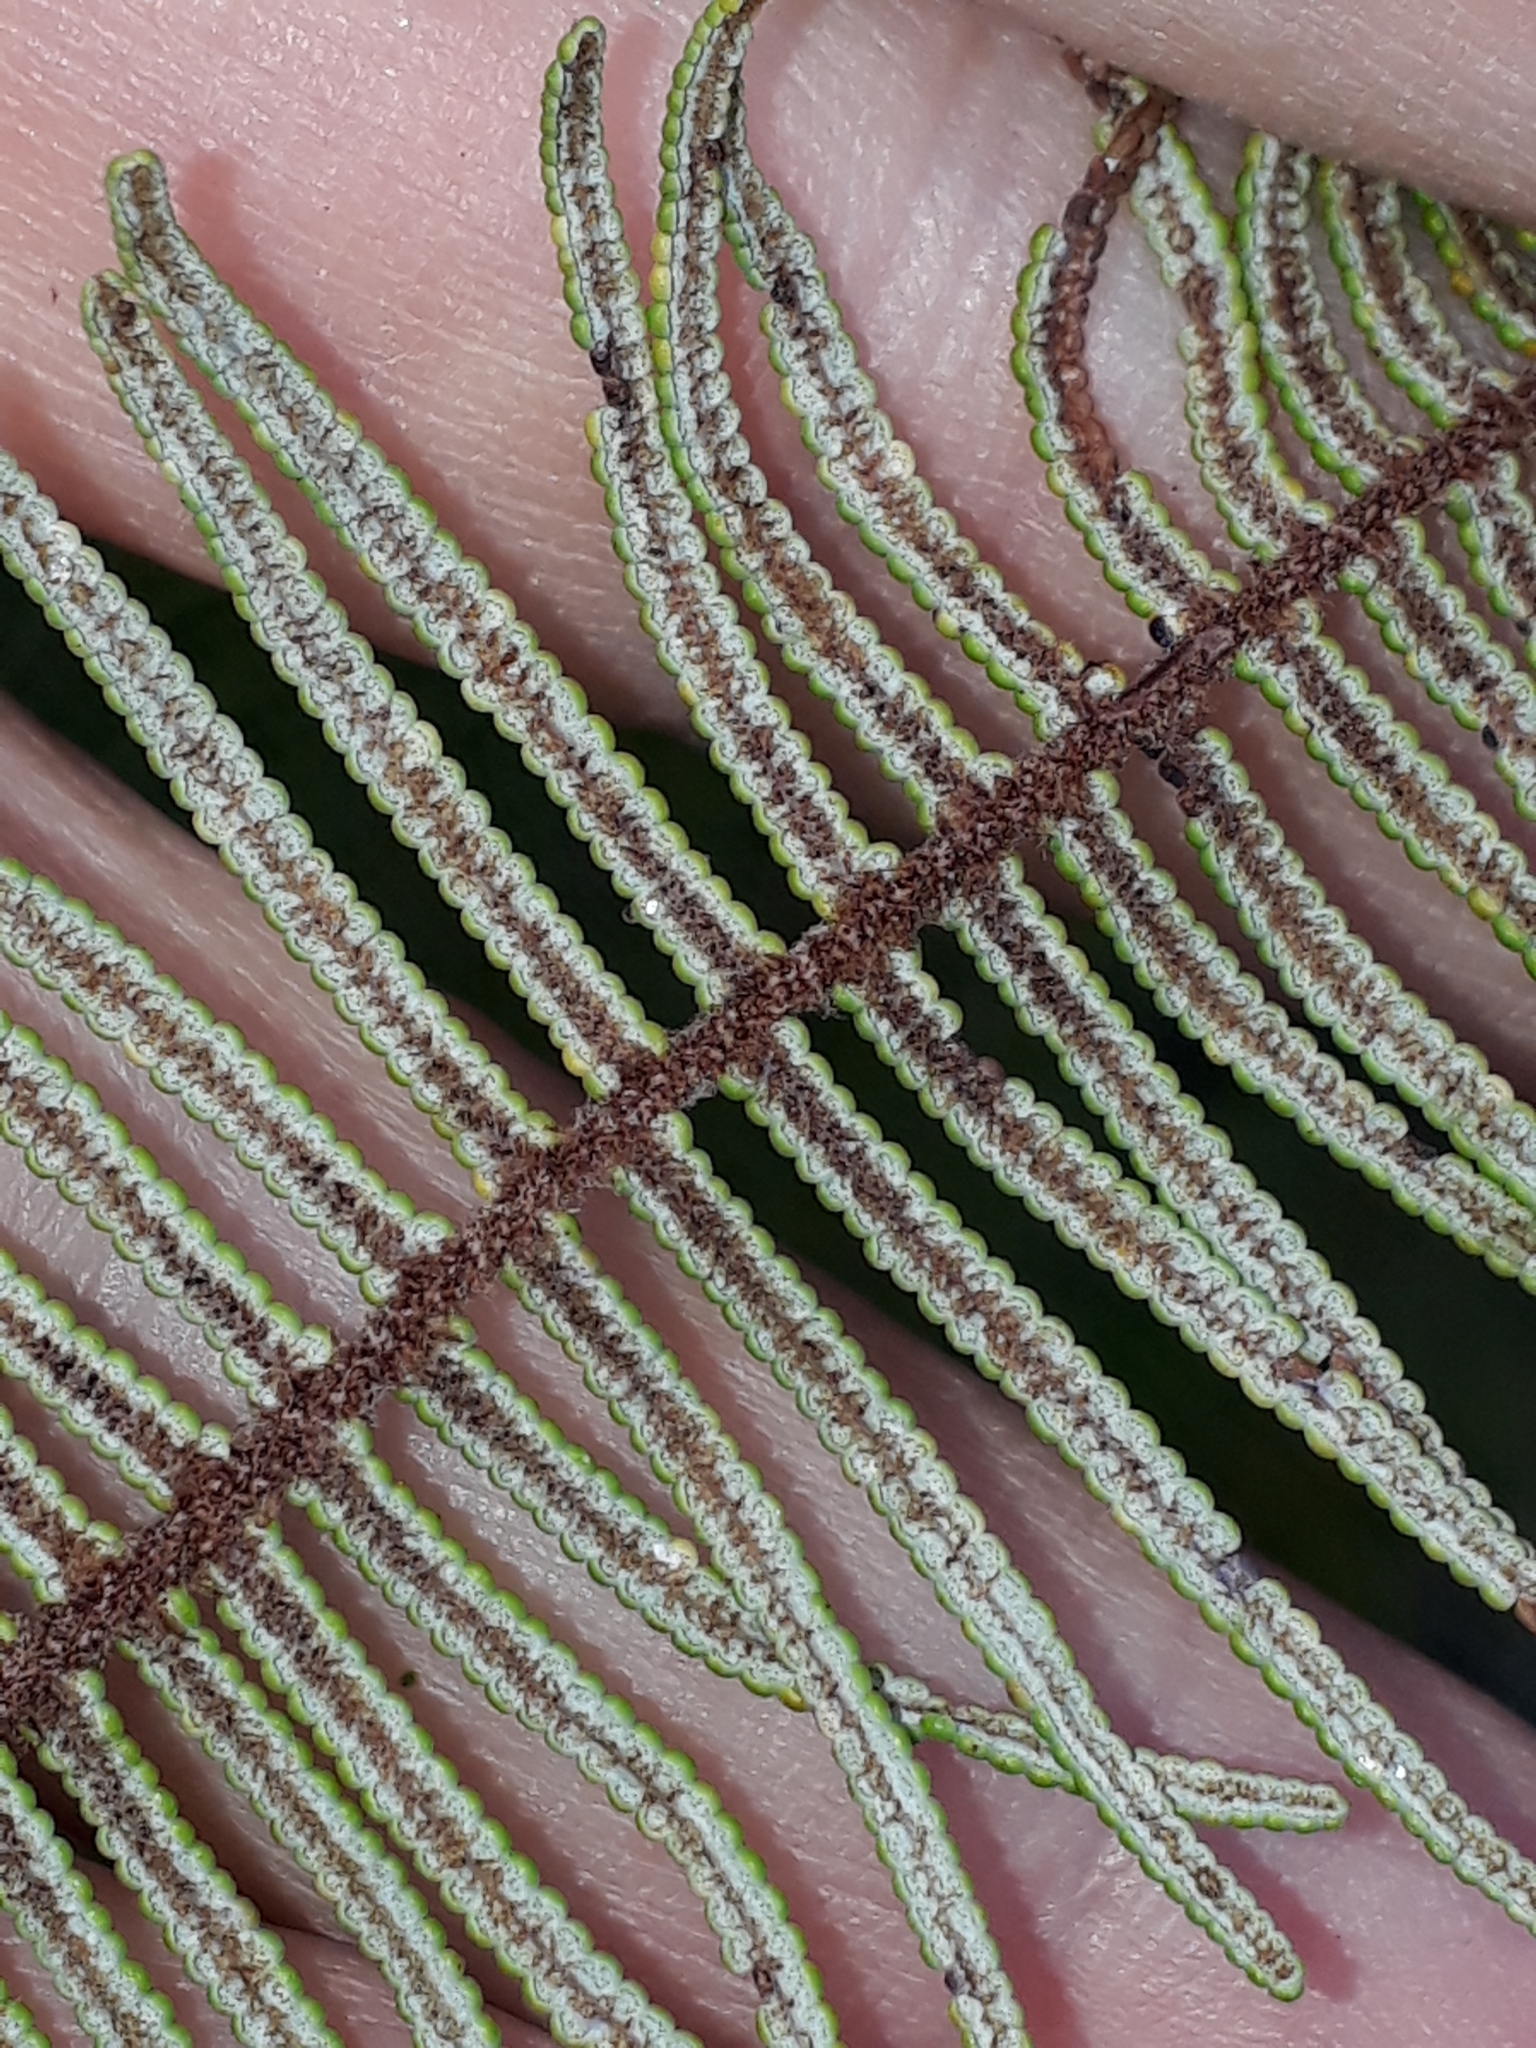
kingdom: Plantae
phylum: Tracheophyta
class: Polypodiopsida
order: Gleicheniales
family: Gleicheniaceae
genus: Gleichenia
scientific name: Gleichenia dicarpa
